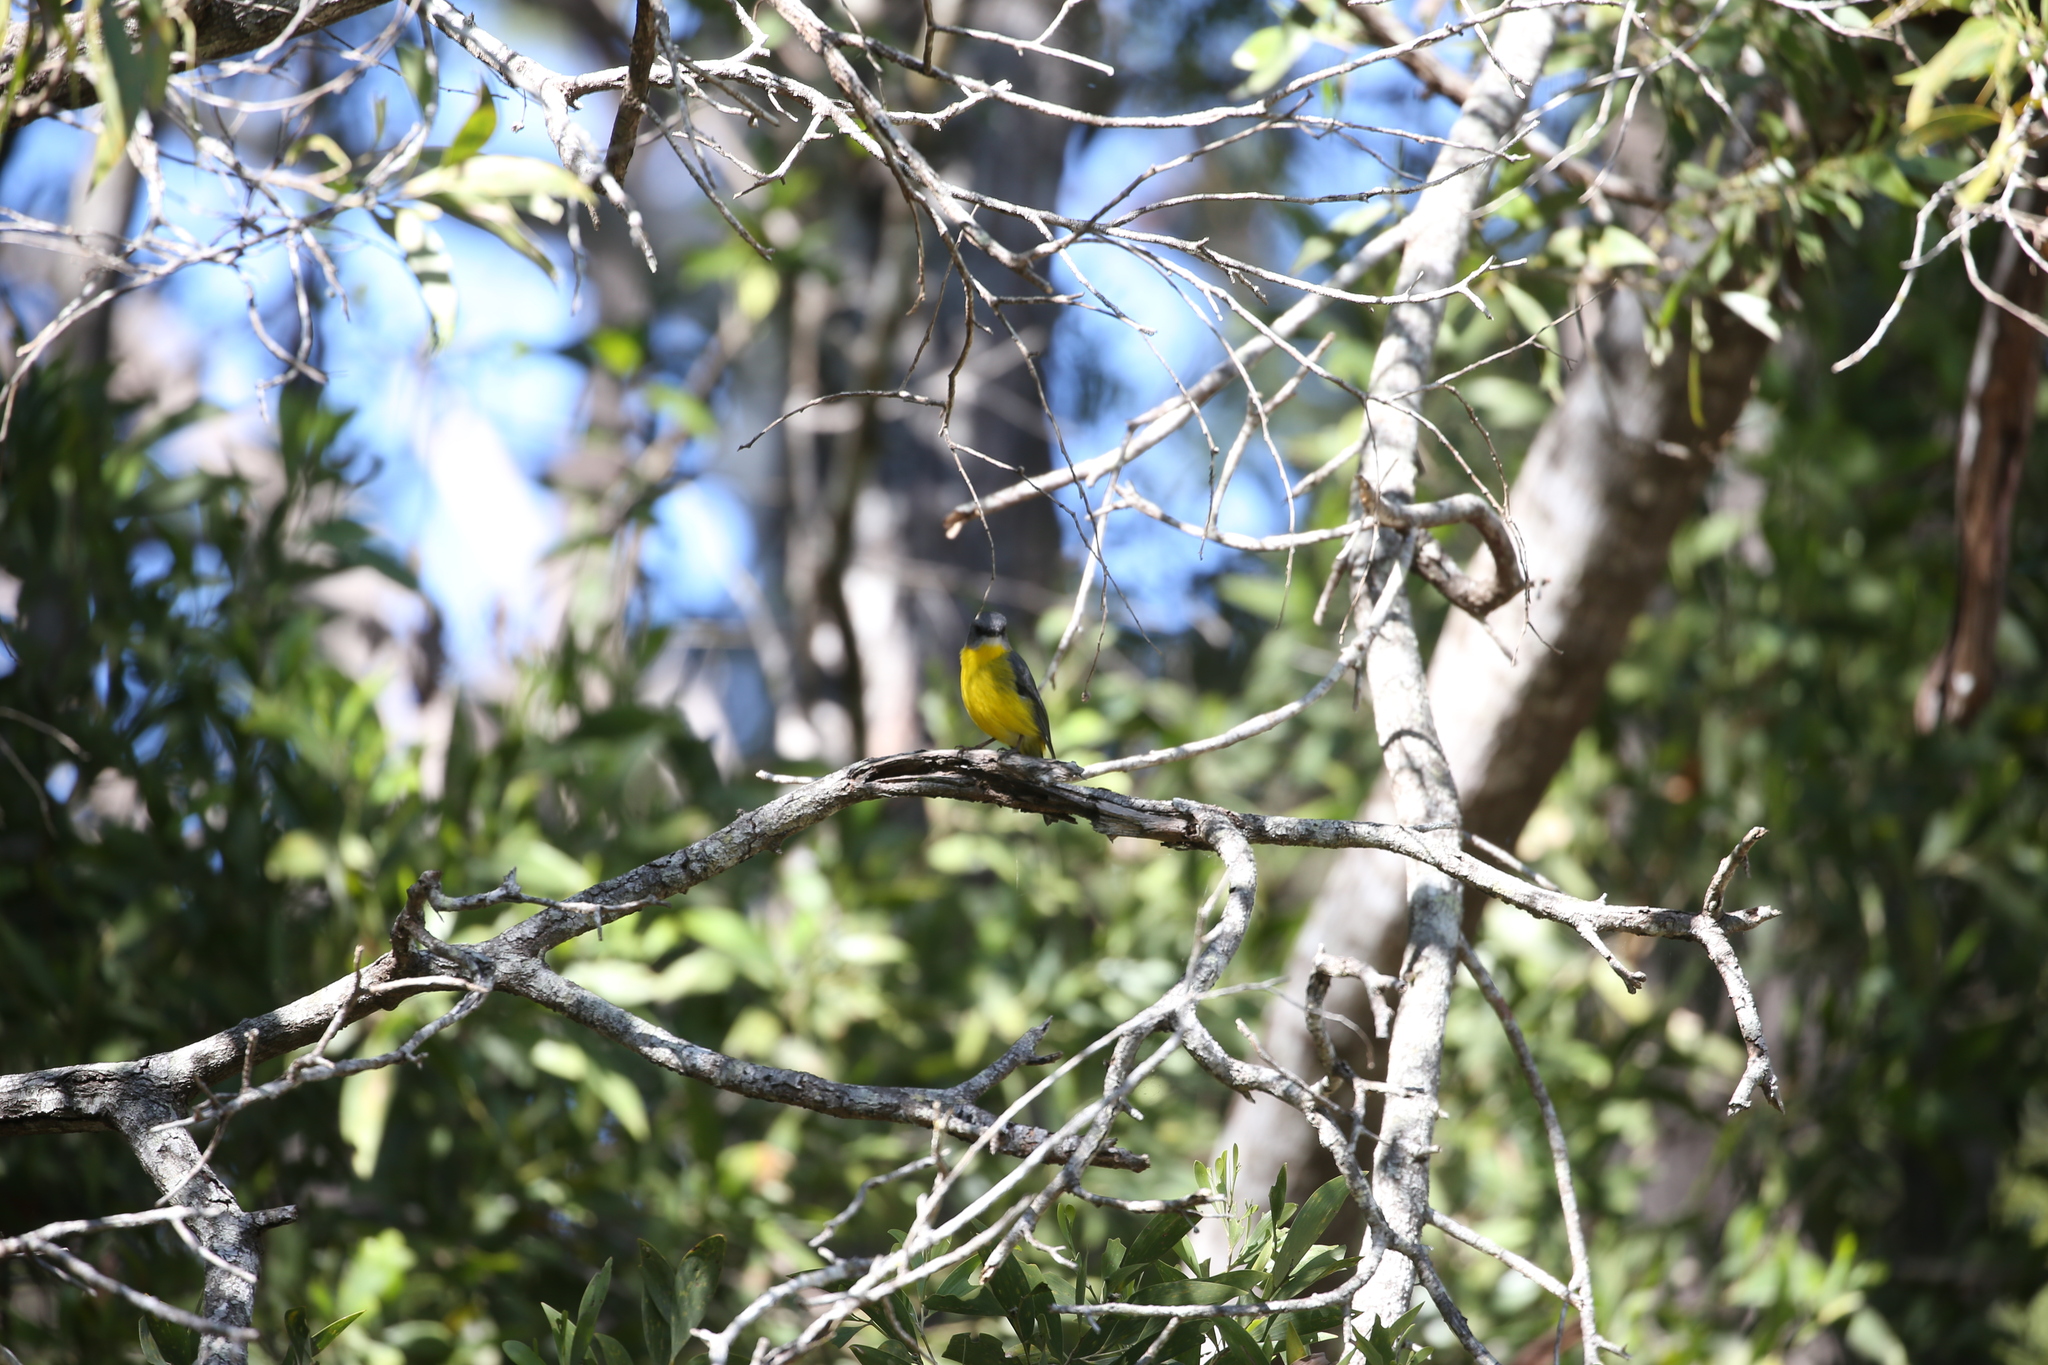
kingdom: Animalia
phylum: Chordata
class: Aves
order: Passeriformes
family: Petroicidae
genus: Eopsaltria
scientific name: Eopsaltria australis
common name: Eastern yellow robin
